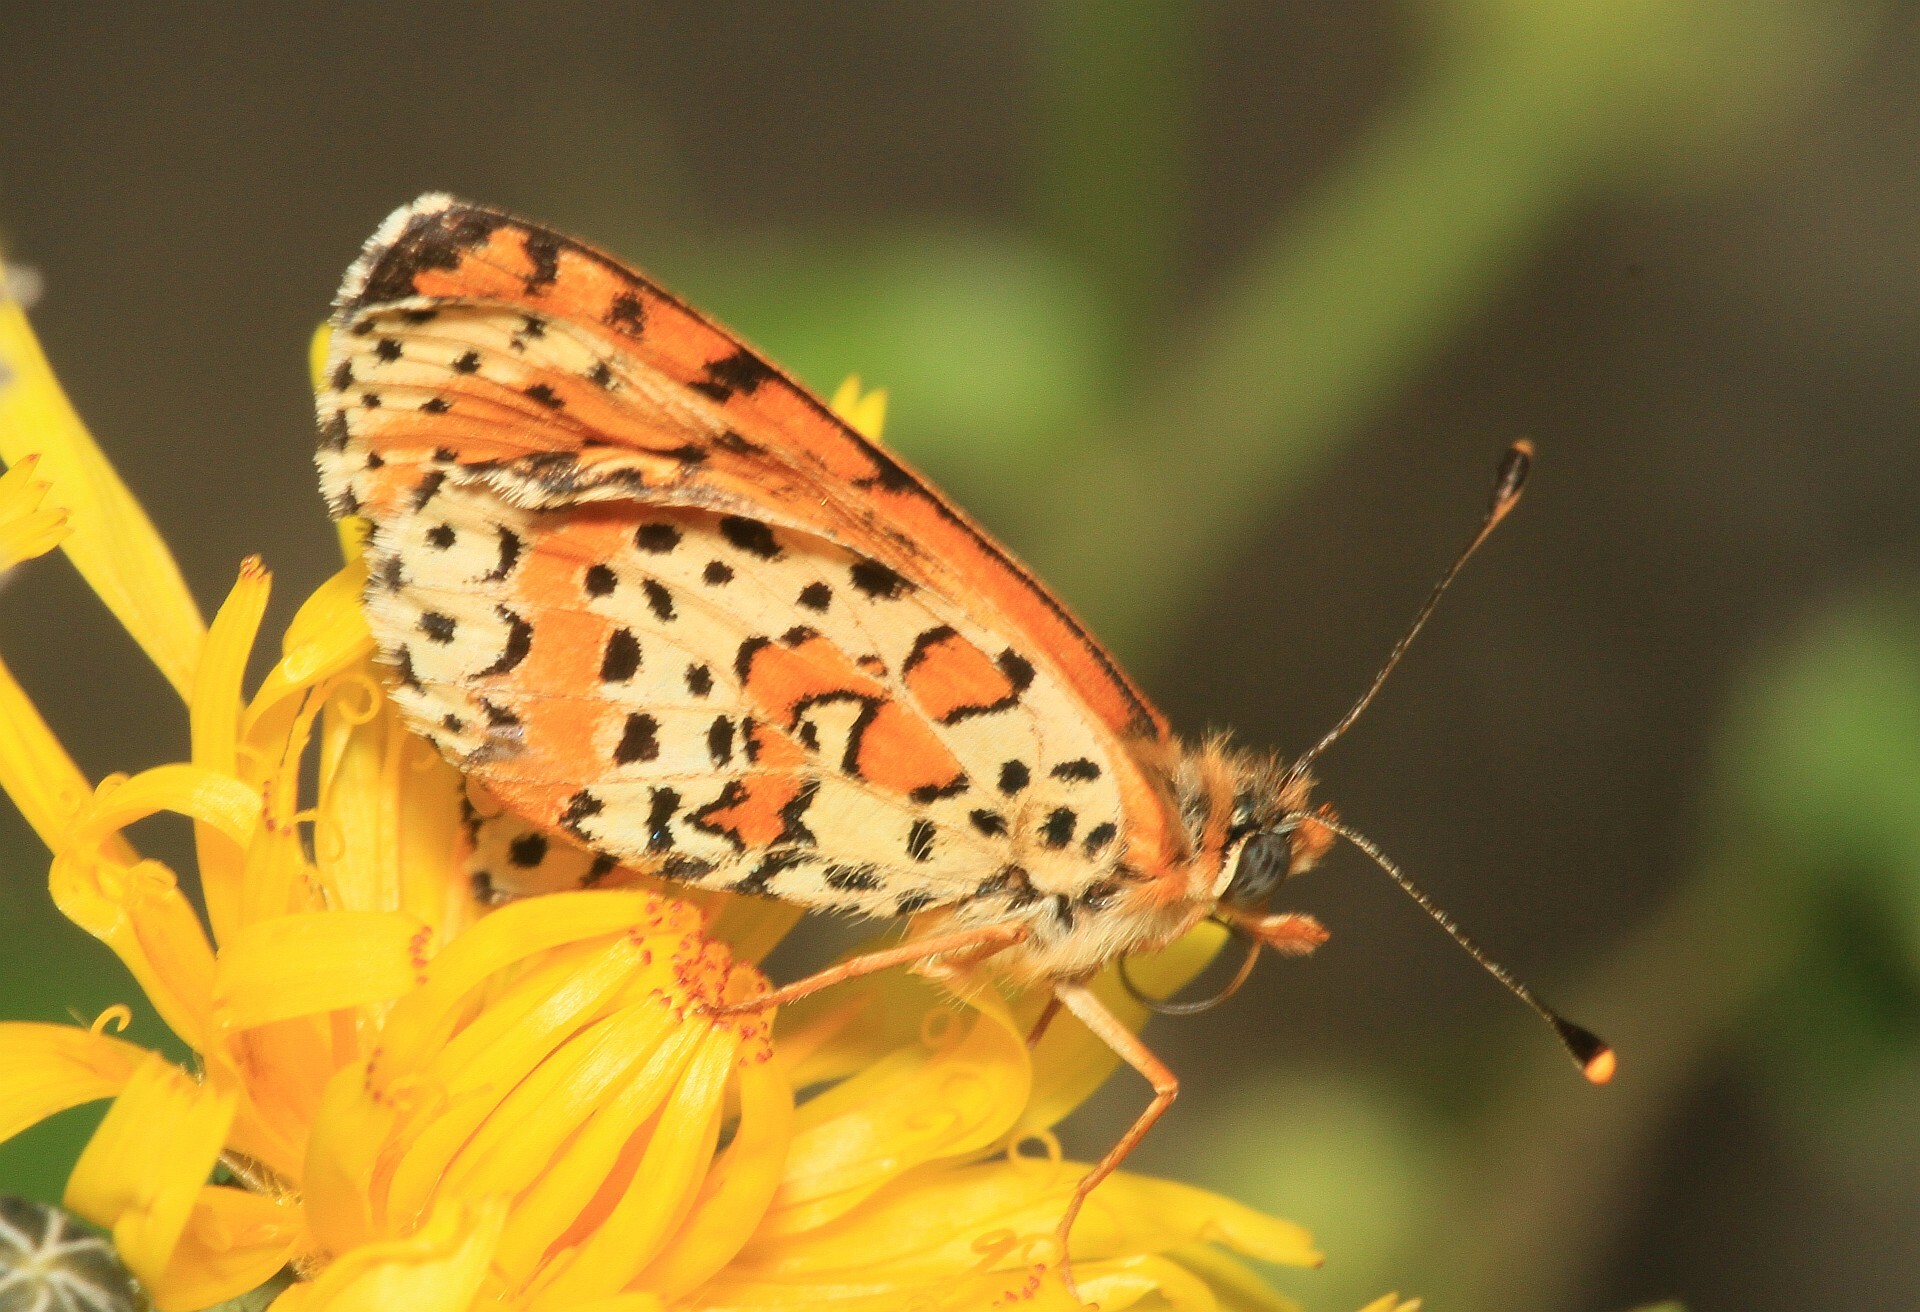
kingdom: Animalia
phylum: Arthropoda
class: Insecta
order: Lepidoptera
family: Nymphalidae
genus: Melitaea
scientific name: Melitaea didyma
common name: Spotted fritillary
